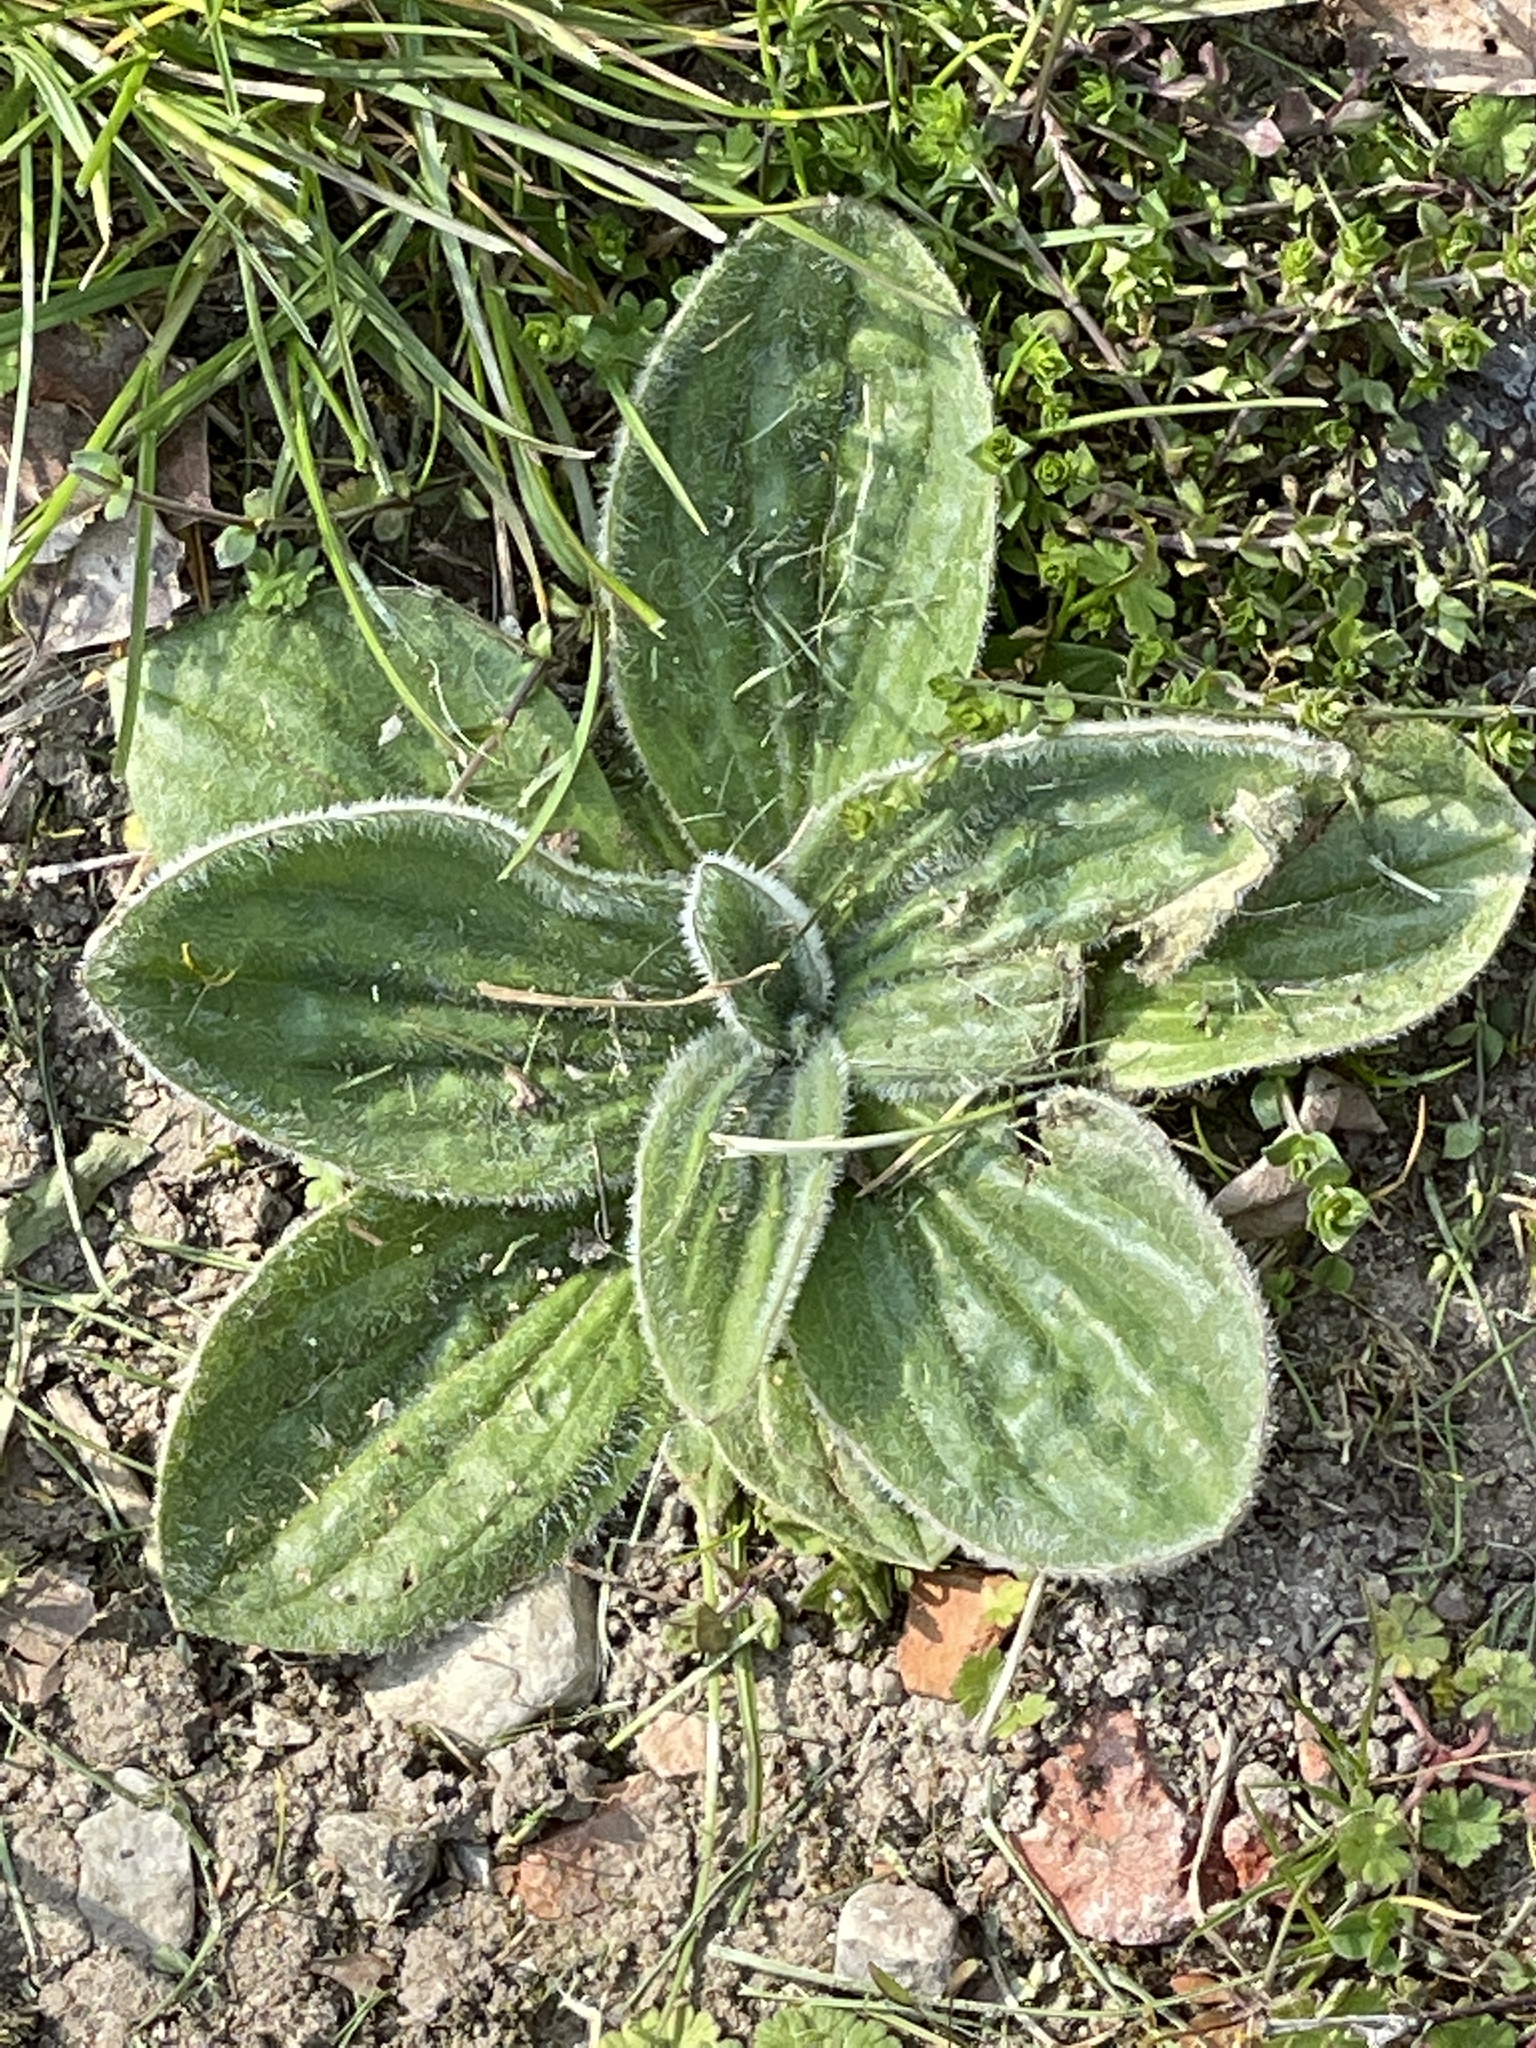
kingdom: Plantae
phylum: Tracheophyta
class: Magnoliopsida
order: Lamiales
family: Plantaginaceae
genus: Plantago
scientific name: Plantago media
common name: Hoary plantain
